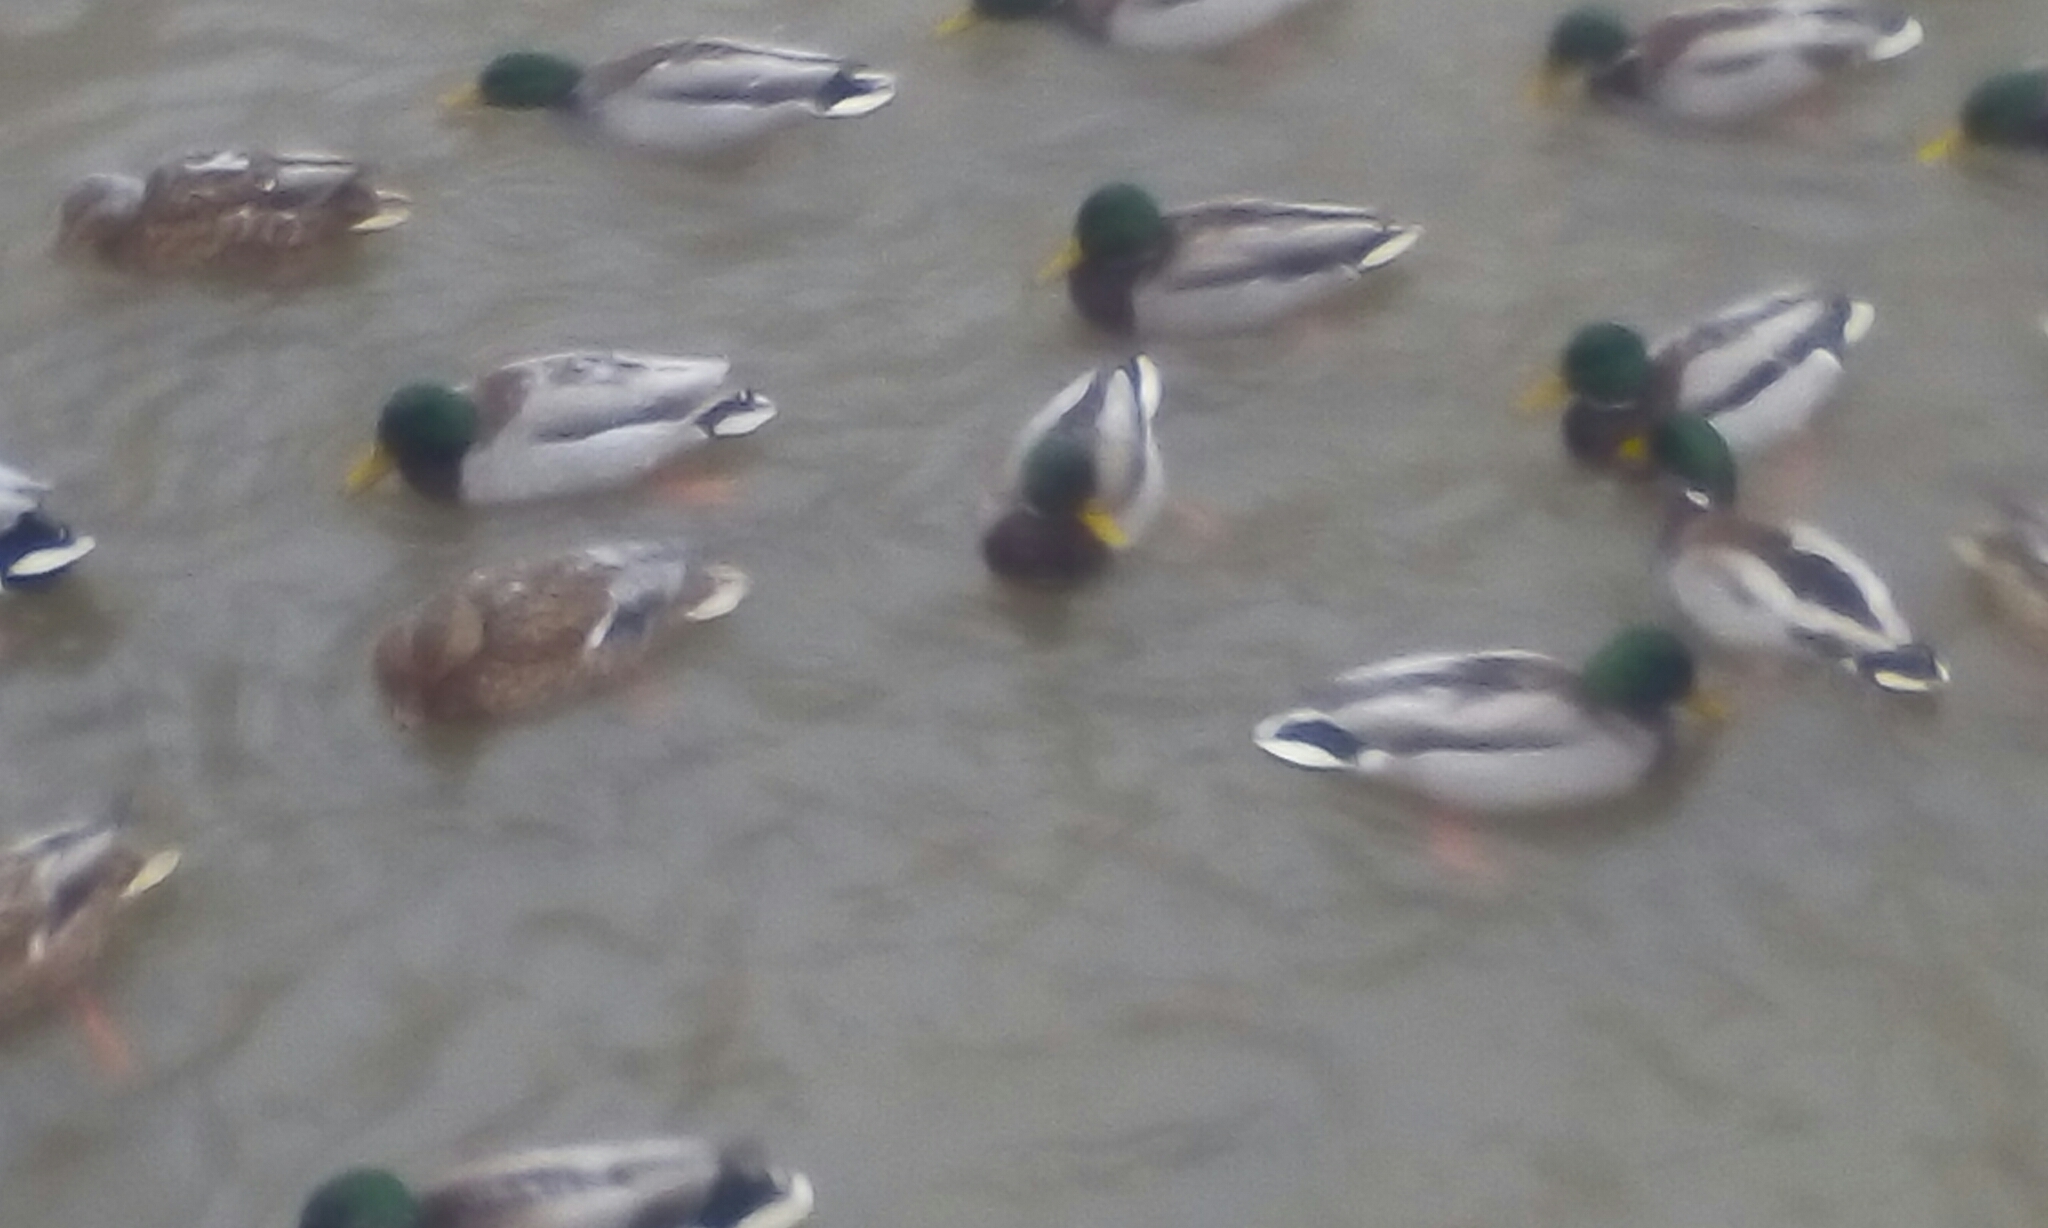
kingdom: Animalia
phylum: Chordata
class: Aves
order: Anseriformes
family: Anatidae
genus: Anas
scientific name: Anas platyrhynchos
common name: Mallard
